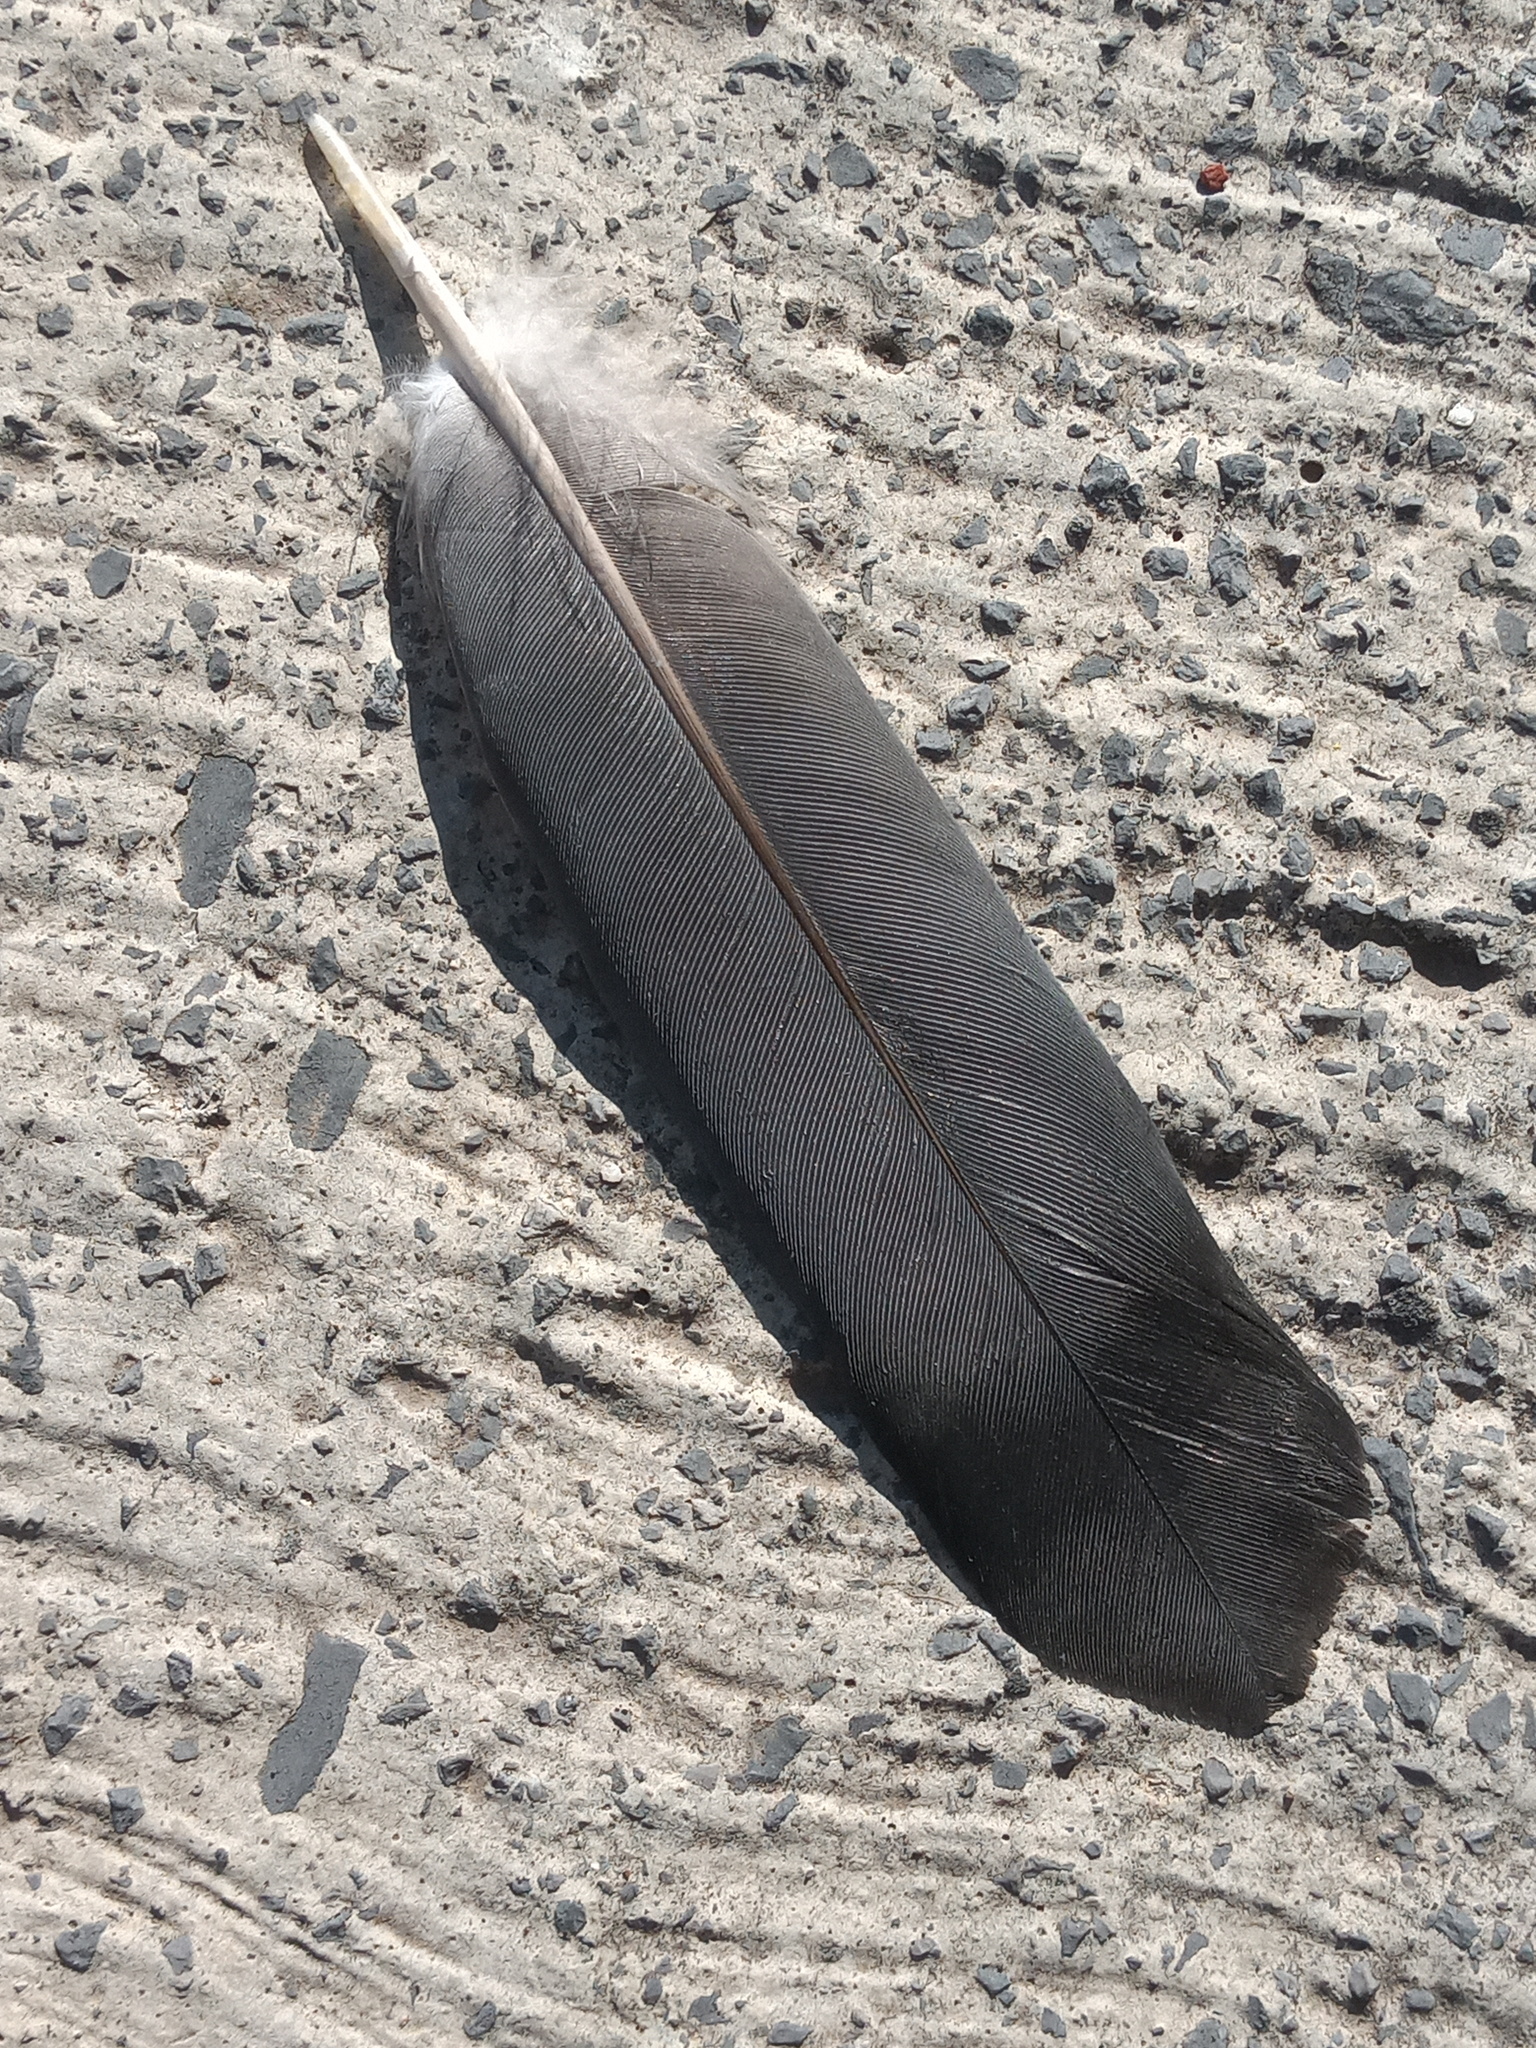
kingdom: Animalia
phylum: Chordata
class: Aves
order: Columbiformes
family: Columbidae
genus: Columba
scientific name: Columba livia
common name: Rock pigeon
